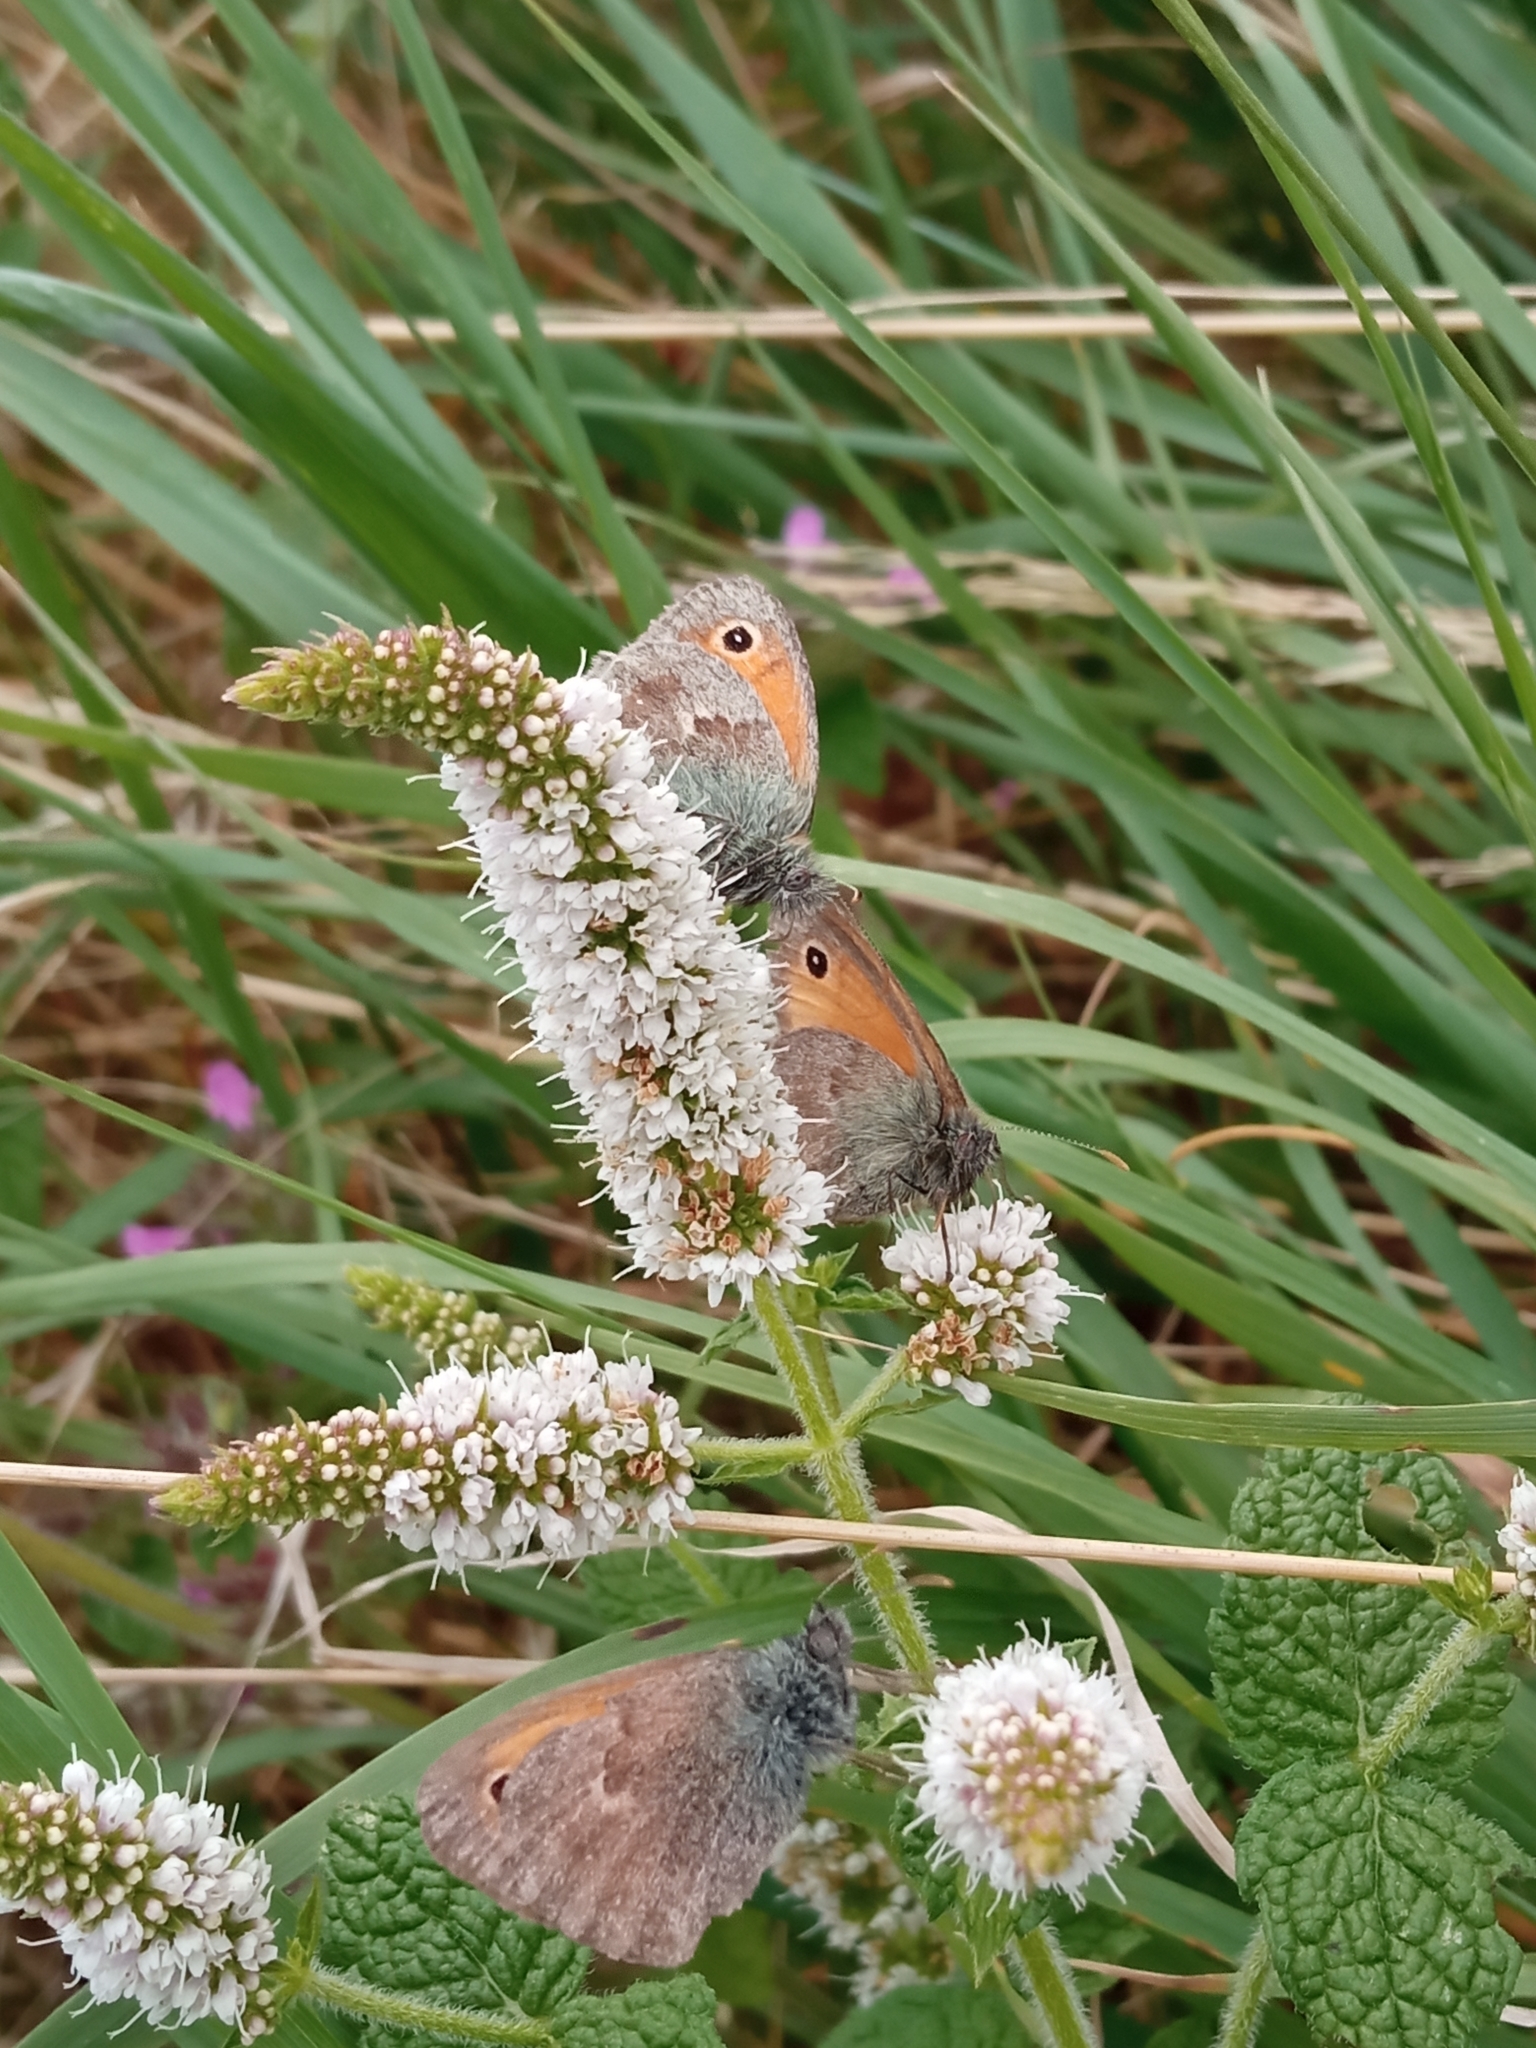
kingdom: Animalia
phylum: Arthropoda
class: Insecta
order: Lepidoptera
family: Nymphalidae
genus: Coenonympha
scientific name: Coenonympha pamphilus
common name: Small heath
